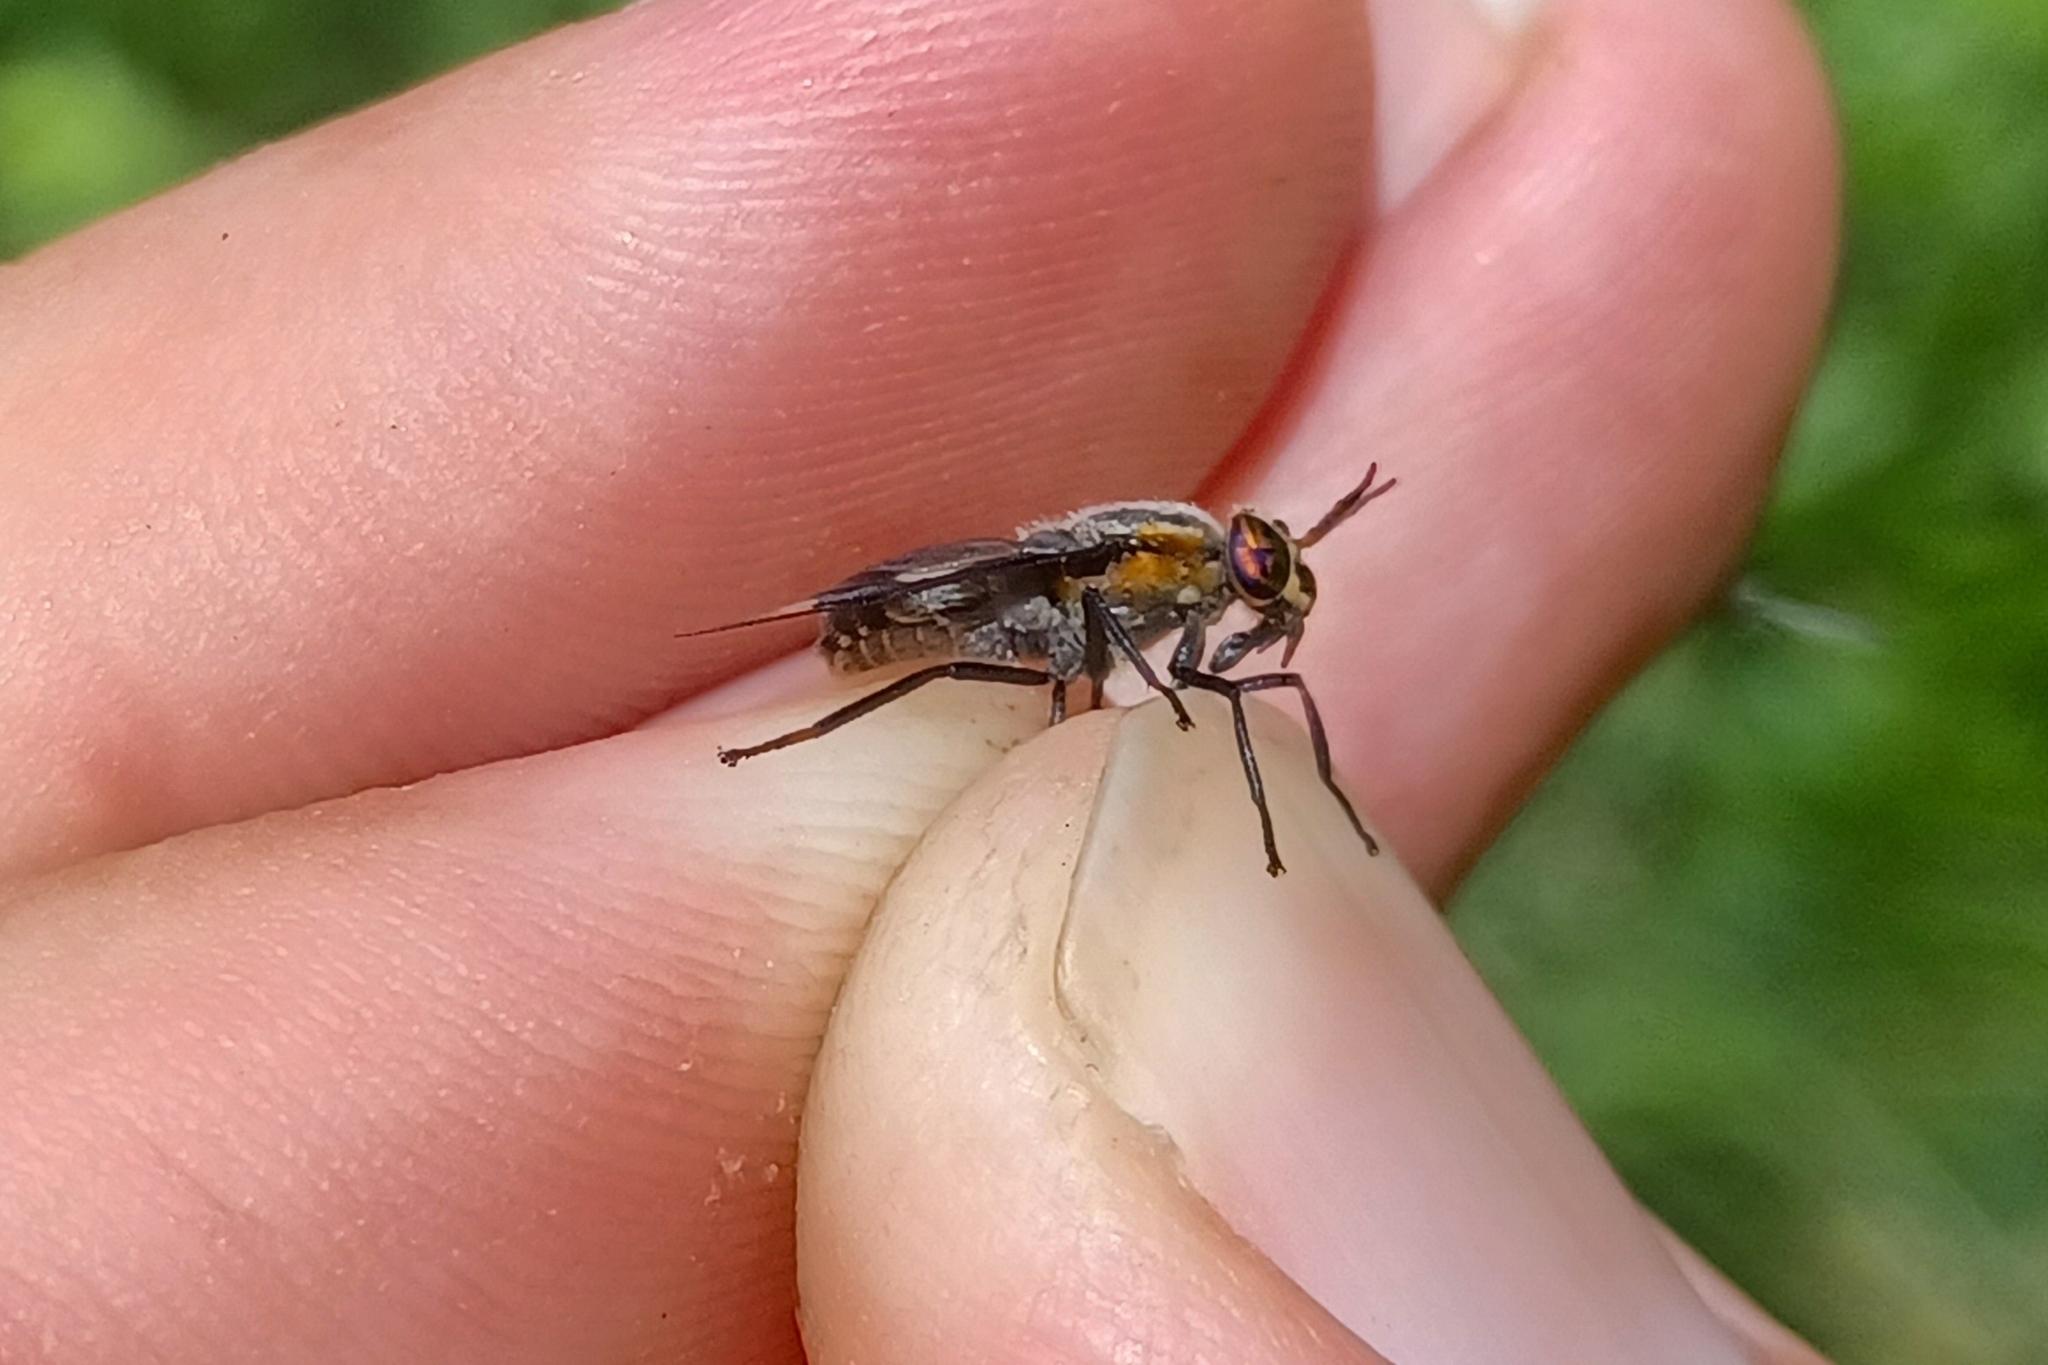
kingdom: Animalia
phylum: Arthropoda
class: Insecta
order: Diptera
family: Tabanidae
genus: Chrysops
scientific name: Chrysops cincticornis
